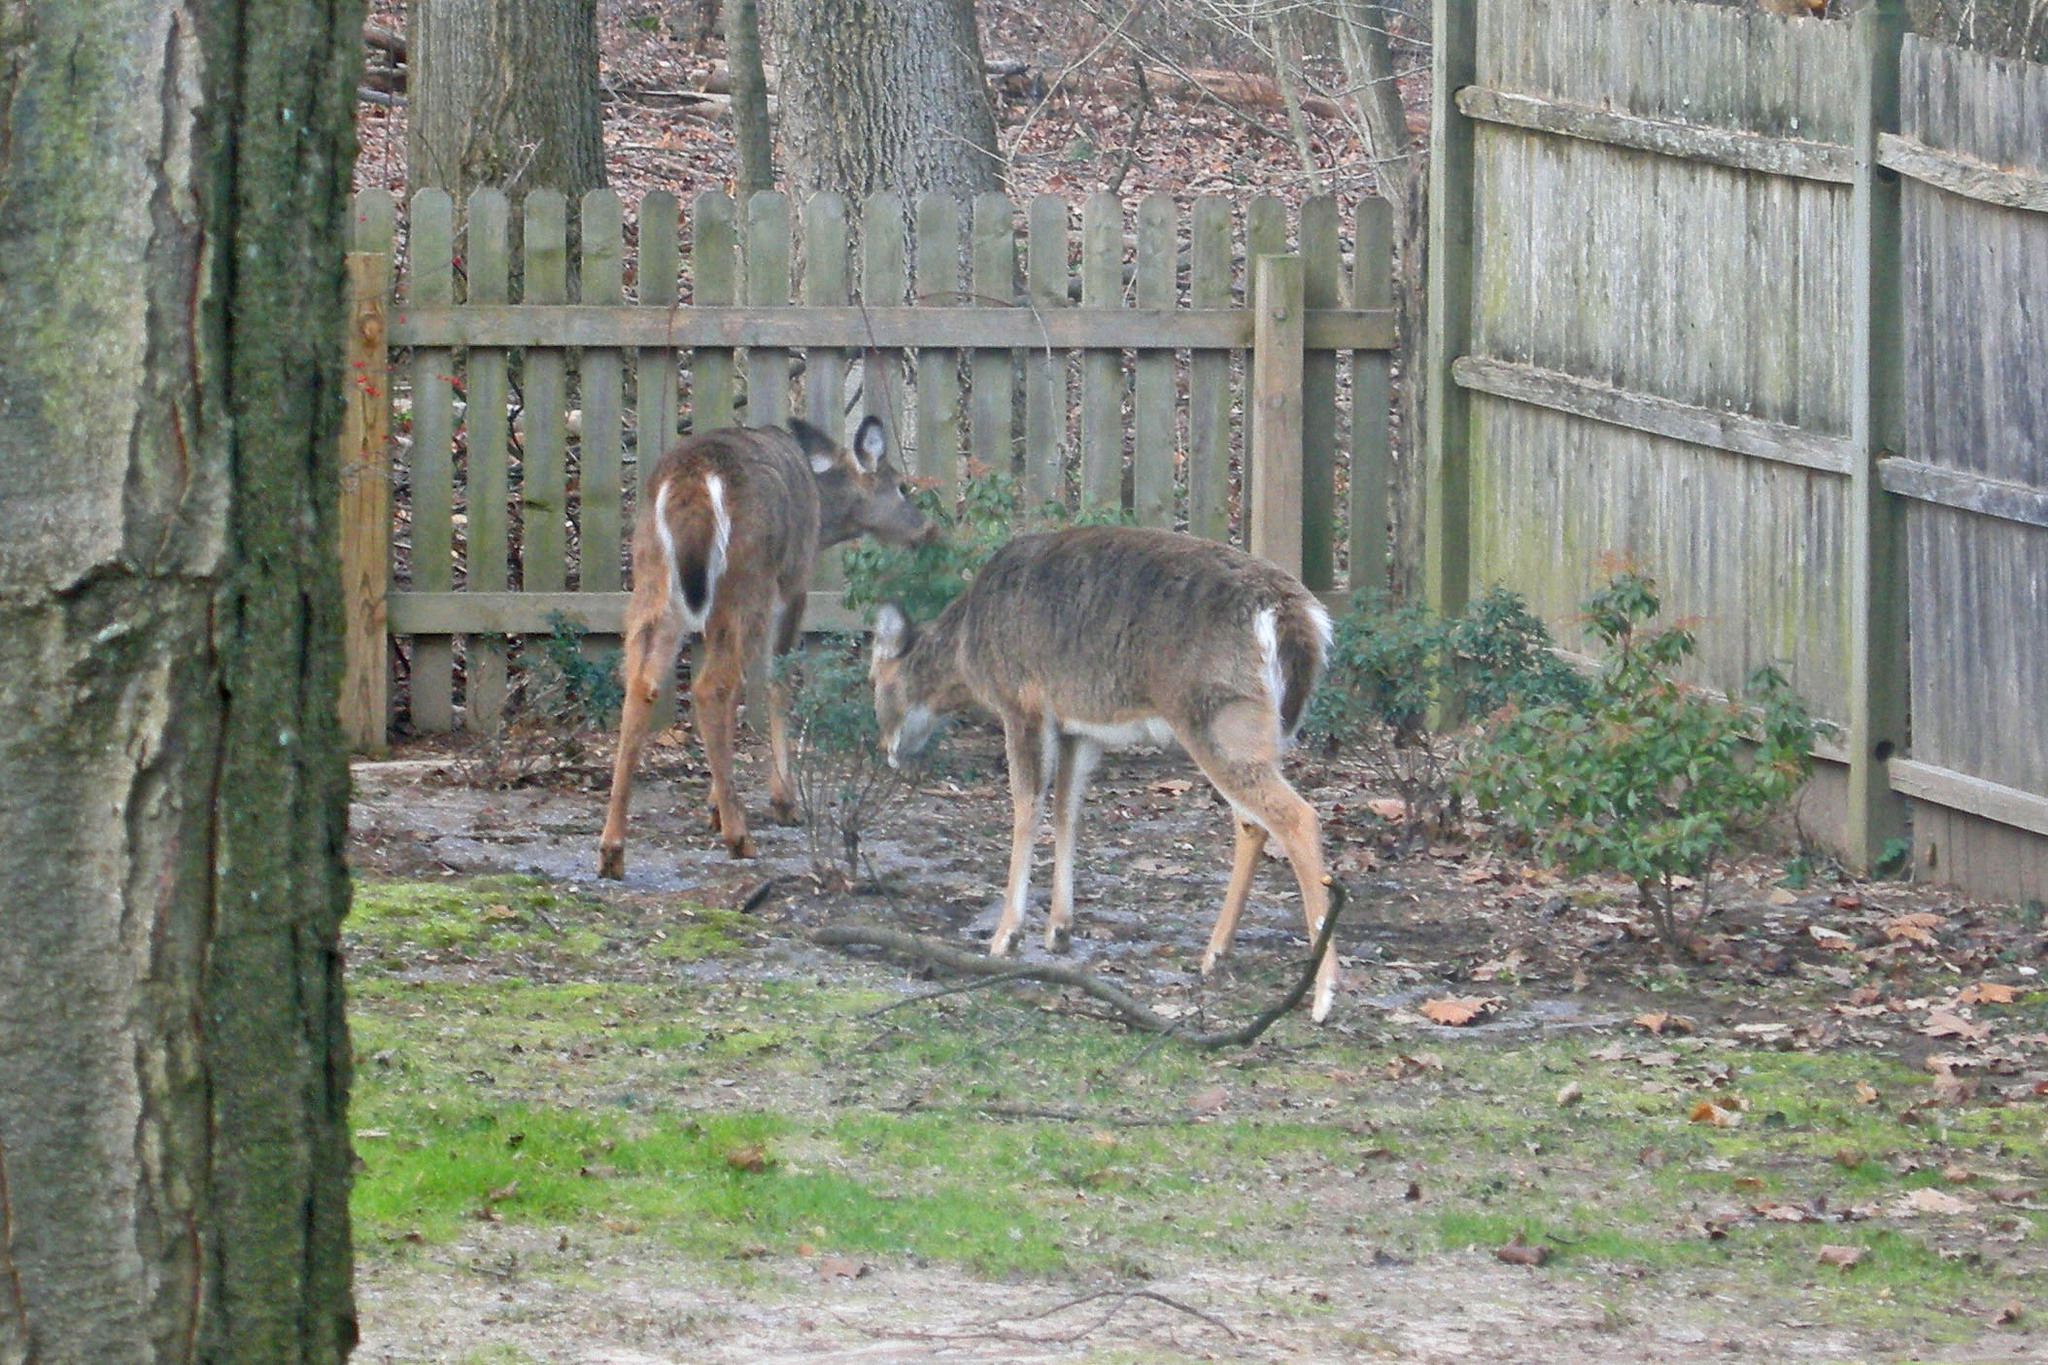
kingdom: Animalia
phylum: Chordata
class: Mammalia
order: Artiodactyla
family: Cervidae
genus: Odocoileus
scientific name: Odocoileus virginianus
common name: White-tailed deer
